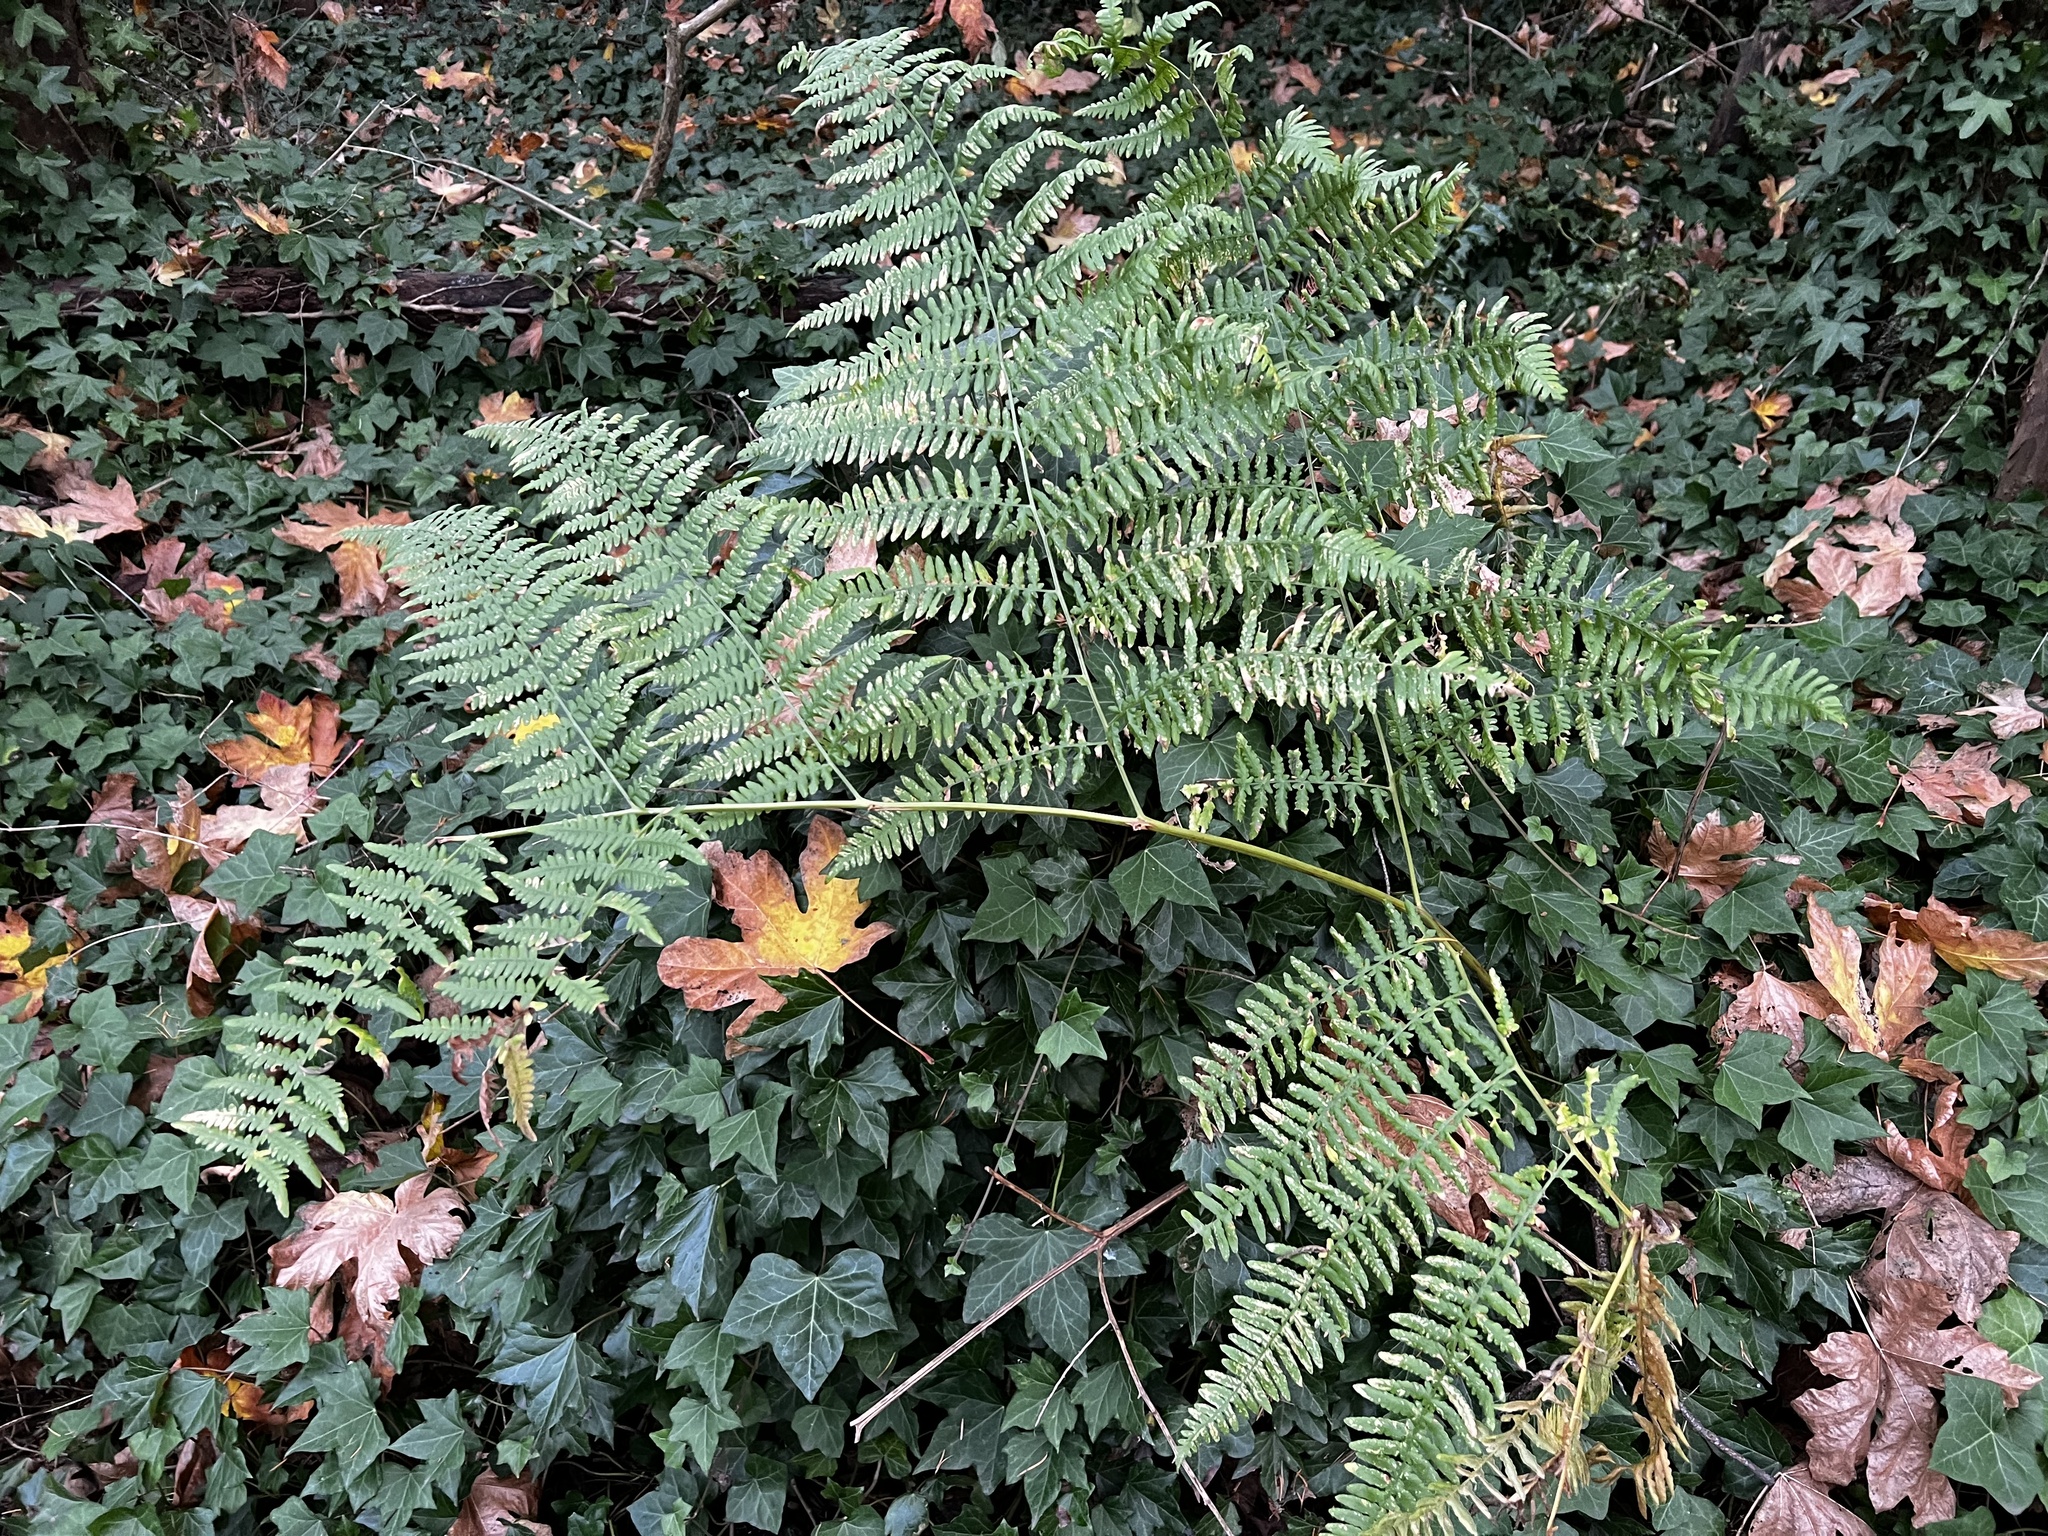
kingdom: Plantae
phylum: Tracheophyta
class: Polypodiopsida
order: Polypodiales
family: Dennstaedtiaceae
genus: Pteridium
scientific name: Pteridium aquilinum
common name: Bracken
